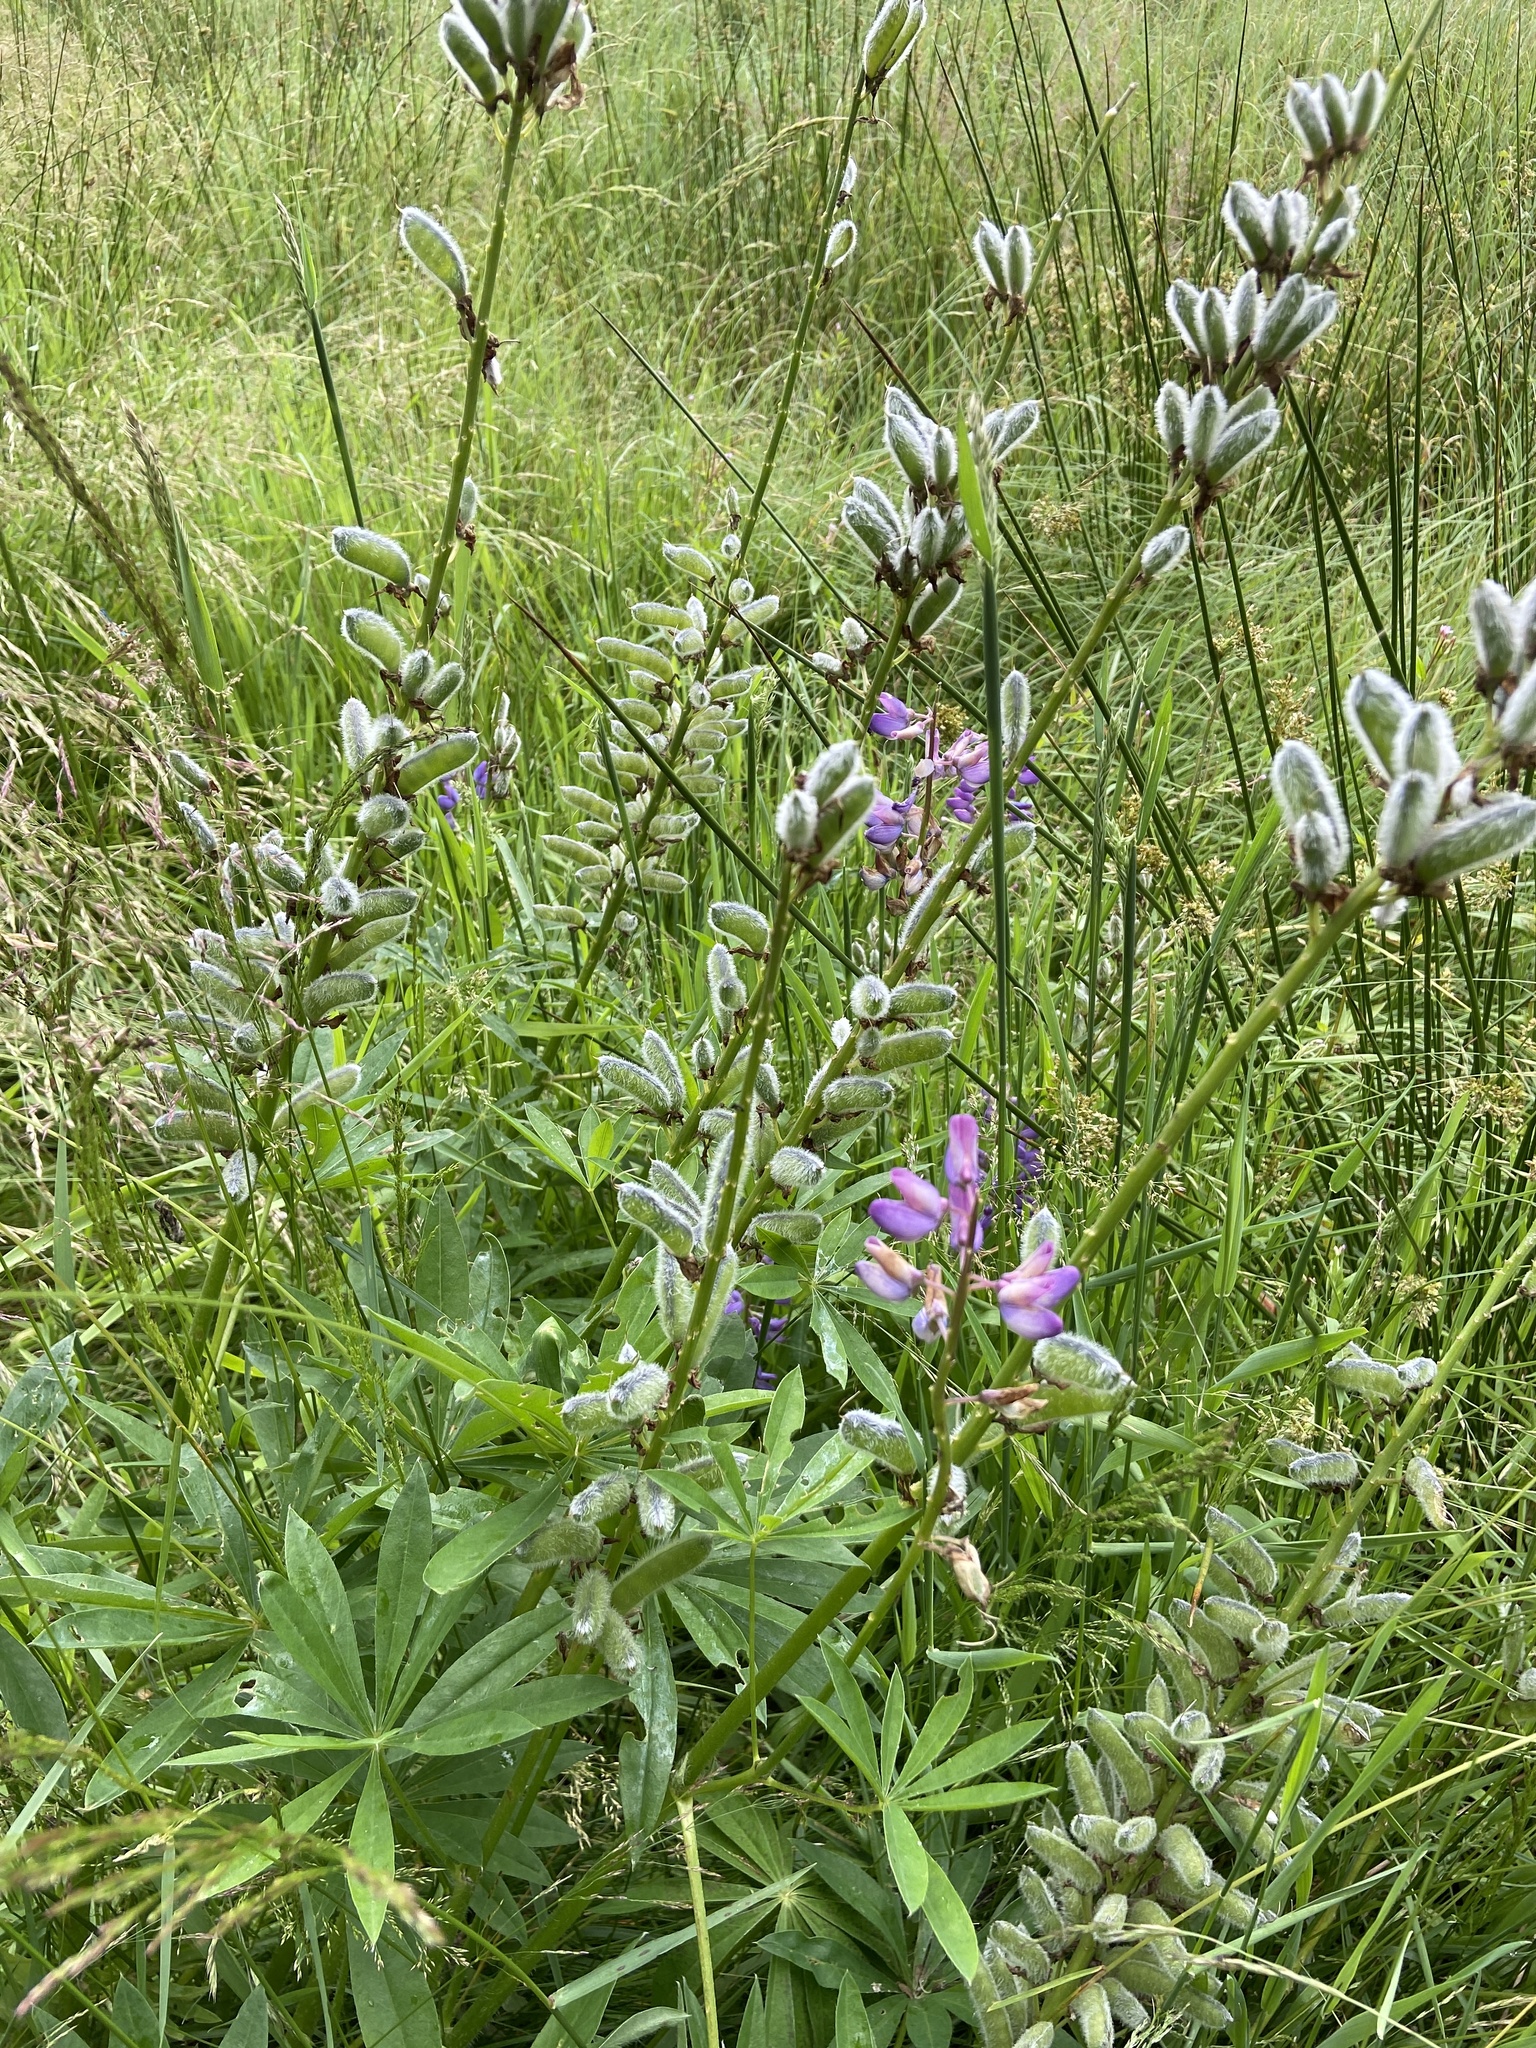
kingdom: Plantae
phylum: Tracheophyta
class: Magnoliopsida
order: Fabales
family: Fabaceae
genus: Lupinus
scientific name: Lupinus polyphyllus
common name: Garden lupin
